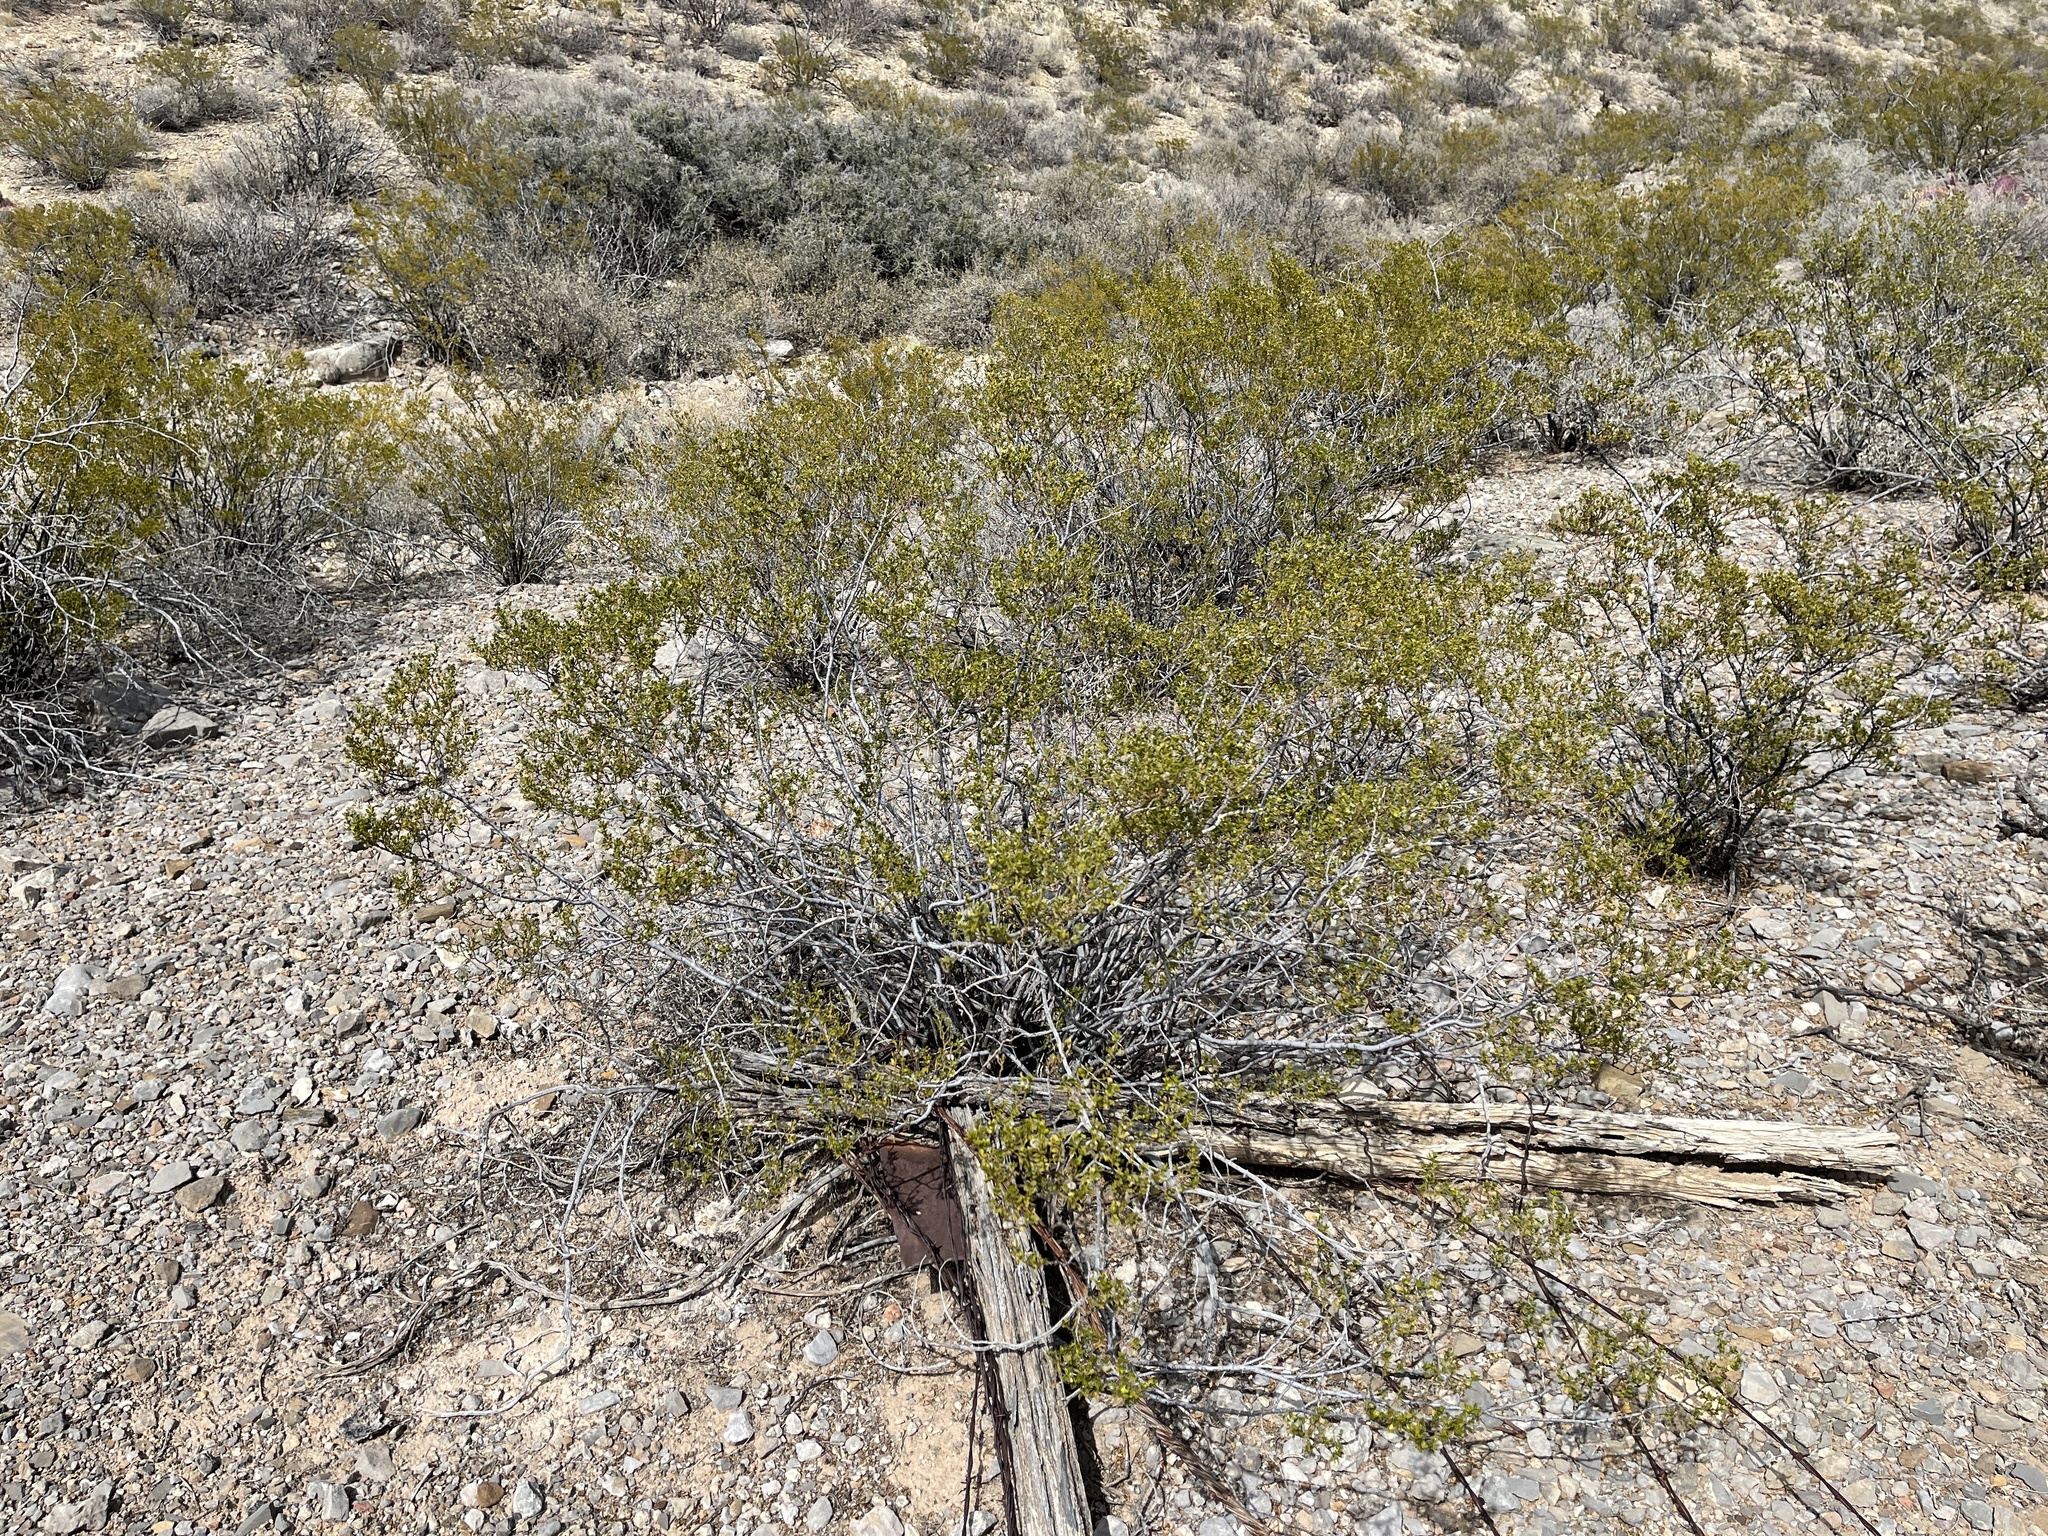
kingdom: Plantae
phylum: Tracheophyta
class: Magnoliopsida
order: Zygophyllales
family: Zygophyllaceae
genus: Larrea
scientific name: Larrea tridentata
